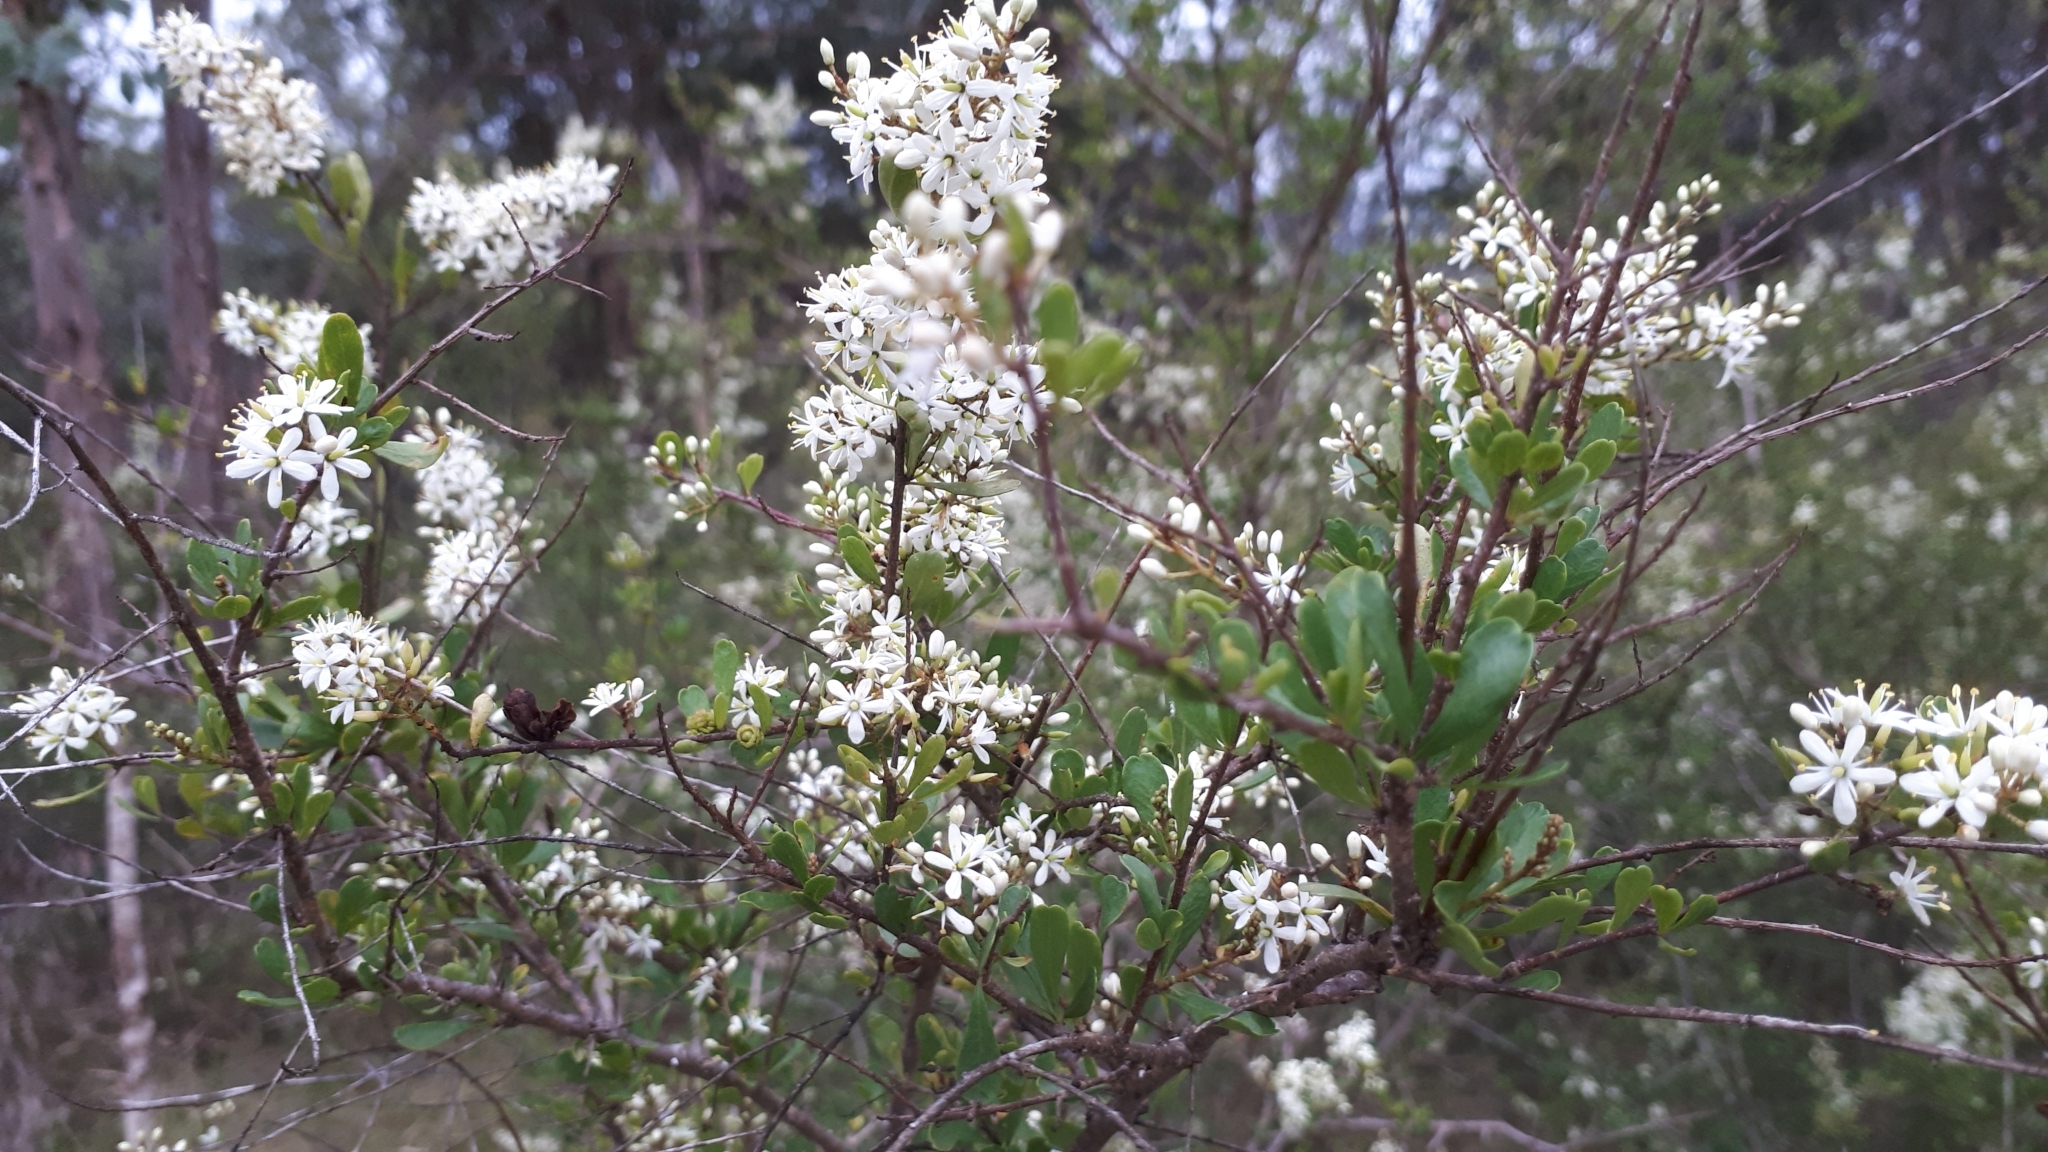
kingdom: Plantae
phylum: Tracheophyta
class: Magnoliopsida
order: Apiales
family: Pittosporaceae
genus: Bursaria
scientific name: Bursaria spinosa
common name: Australian blackthorn
